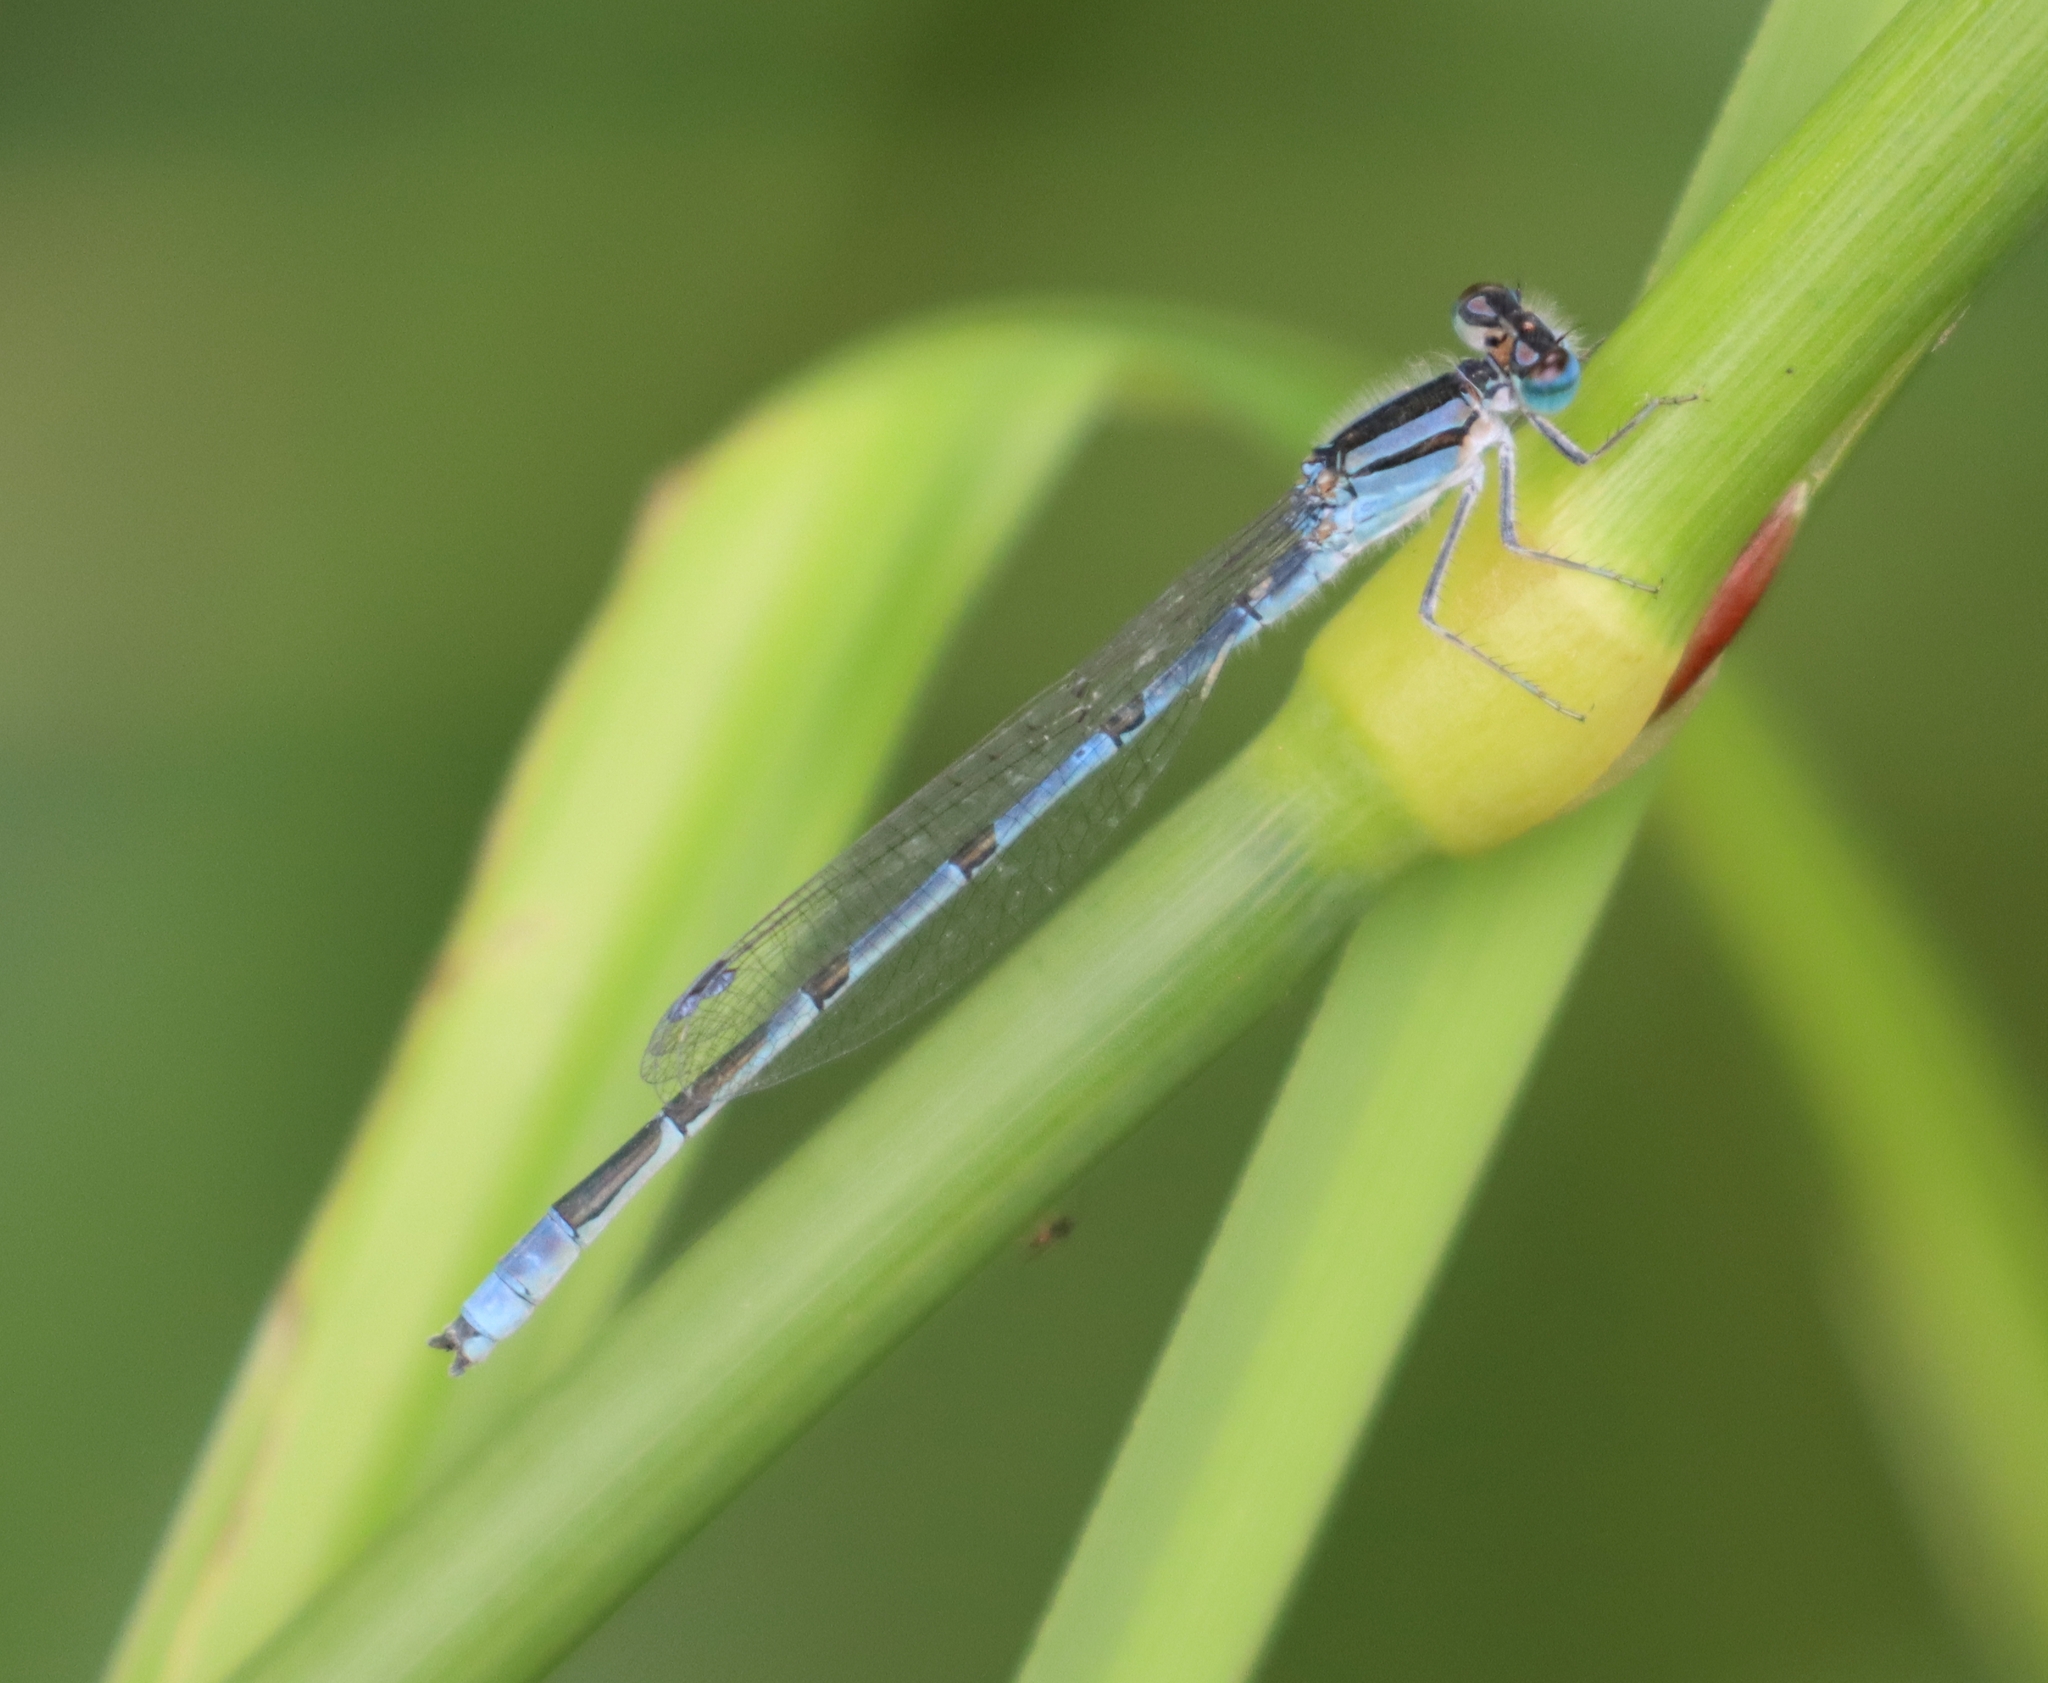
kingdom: Animalia
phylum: Arthropoda
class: Insecta
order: Odonata
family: Coenagrionidae
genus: Enallagma
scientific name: Enallagma civile
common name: Damselfly
